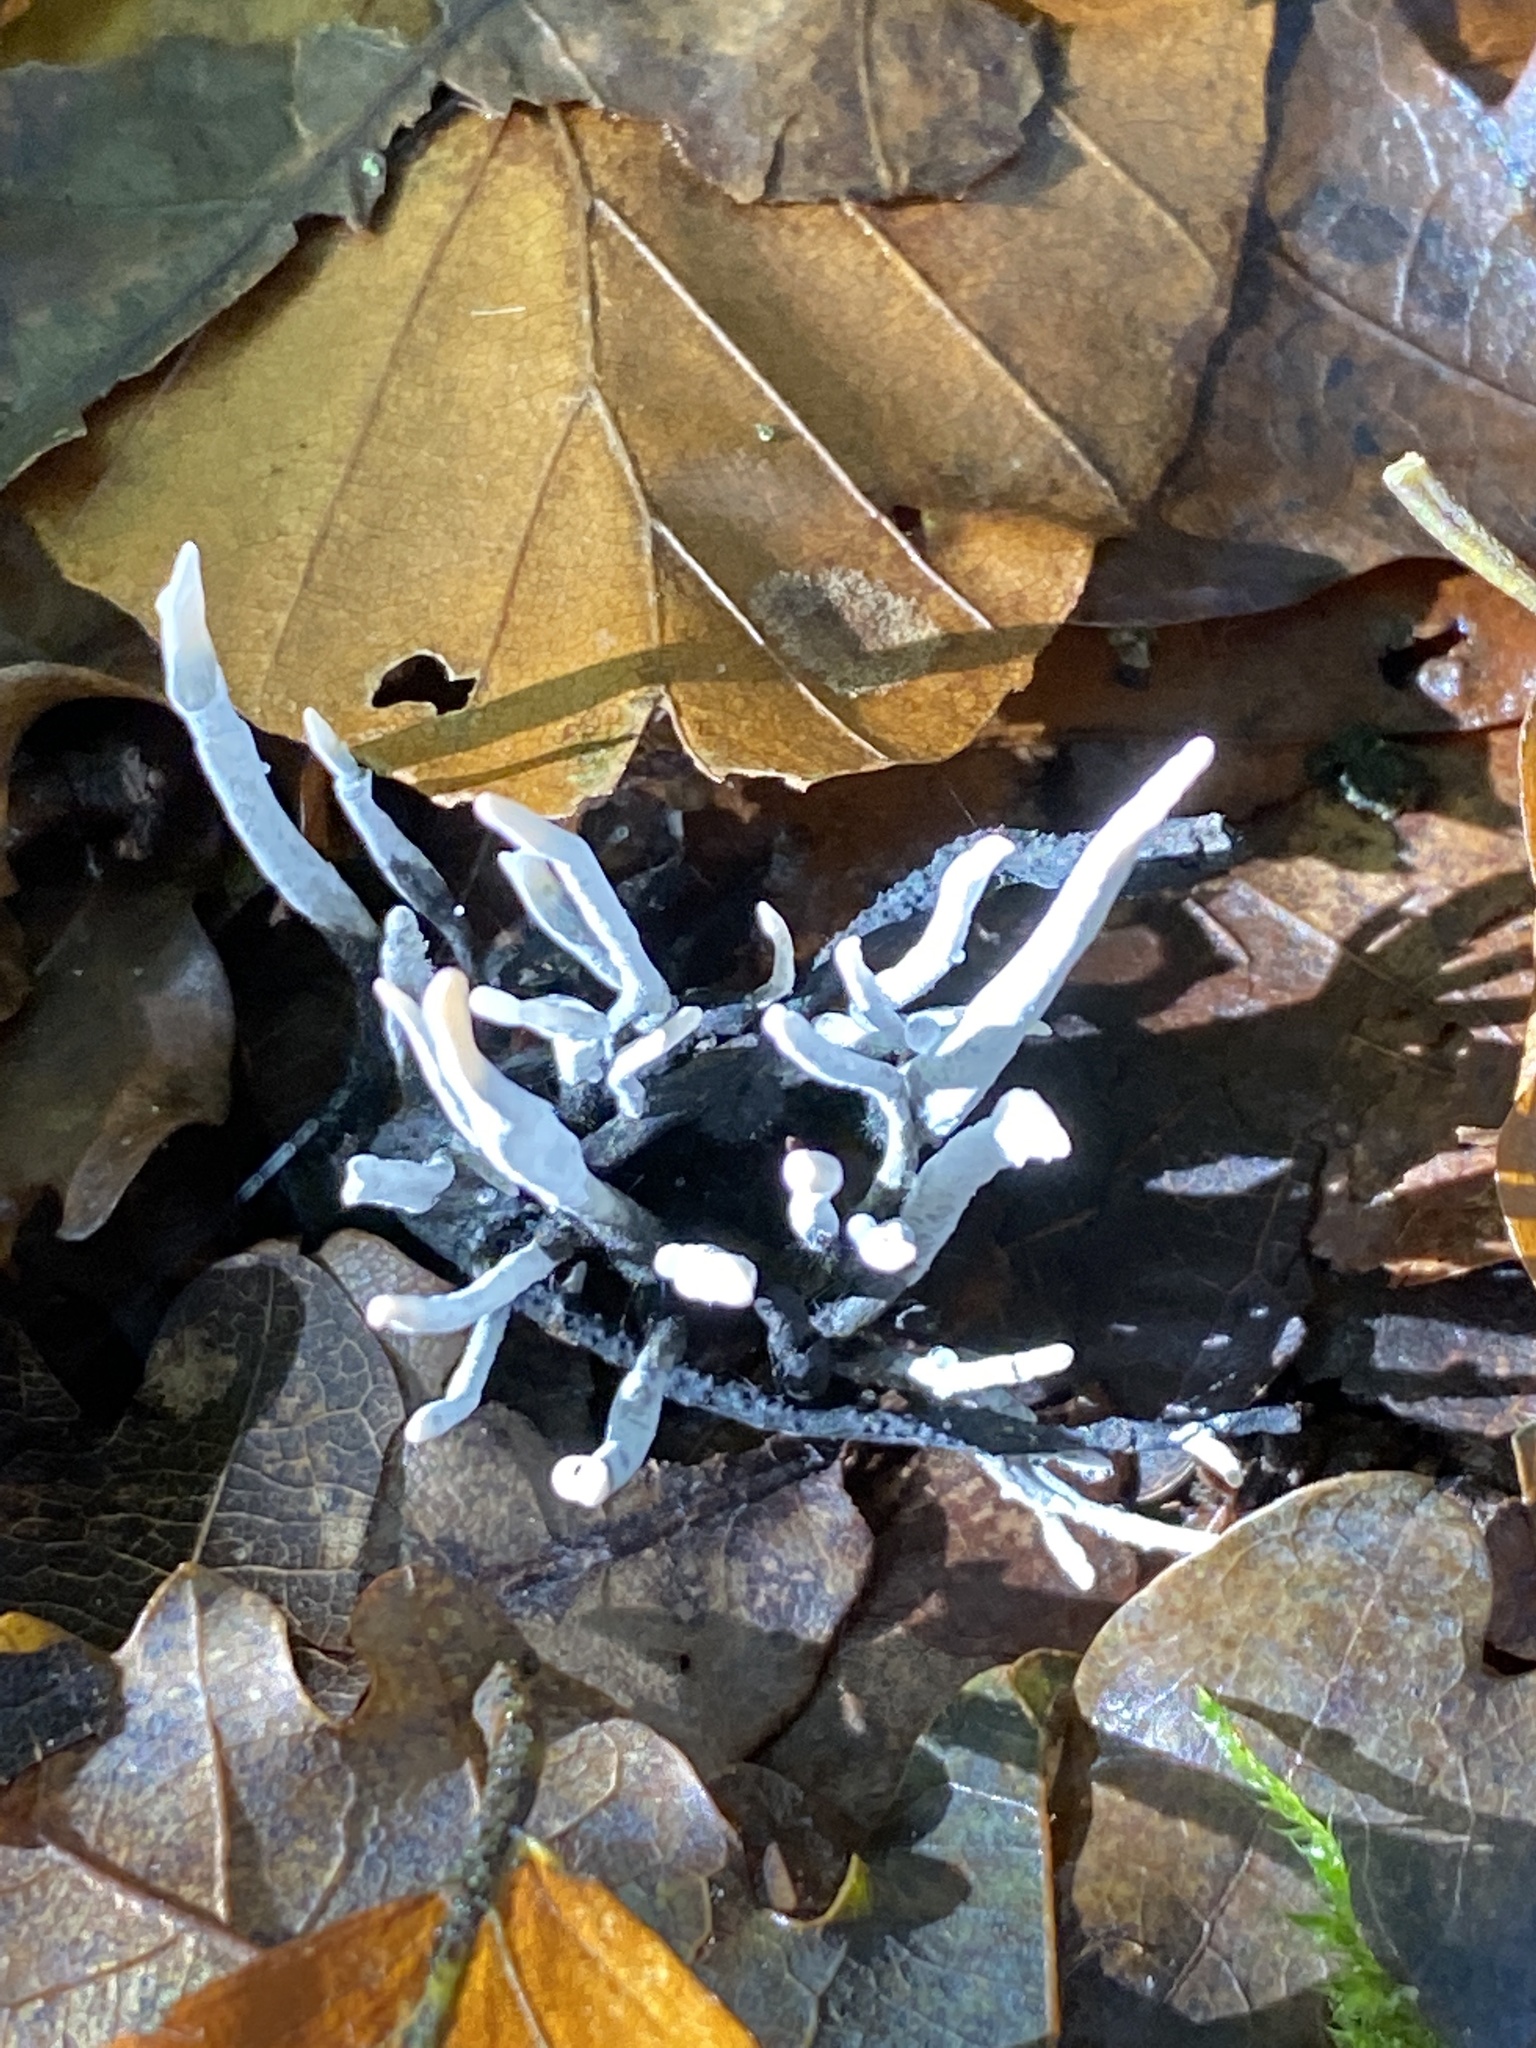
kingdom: Fungi
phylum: Ascomycota
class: Sordariomycetes
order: Xylariales
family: Xylariaceae
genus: Xylaria
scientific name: Xylaria hypoxylon
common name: Candle-snuff fungus
